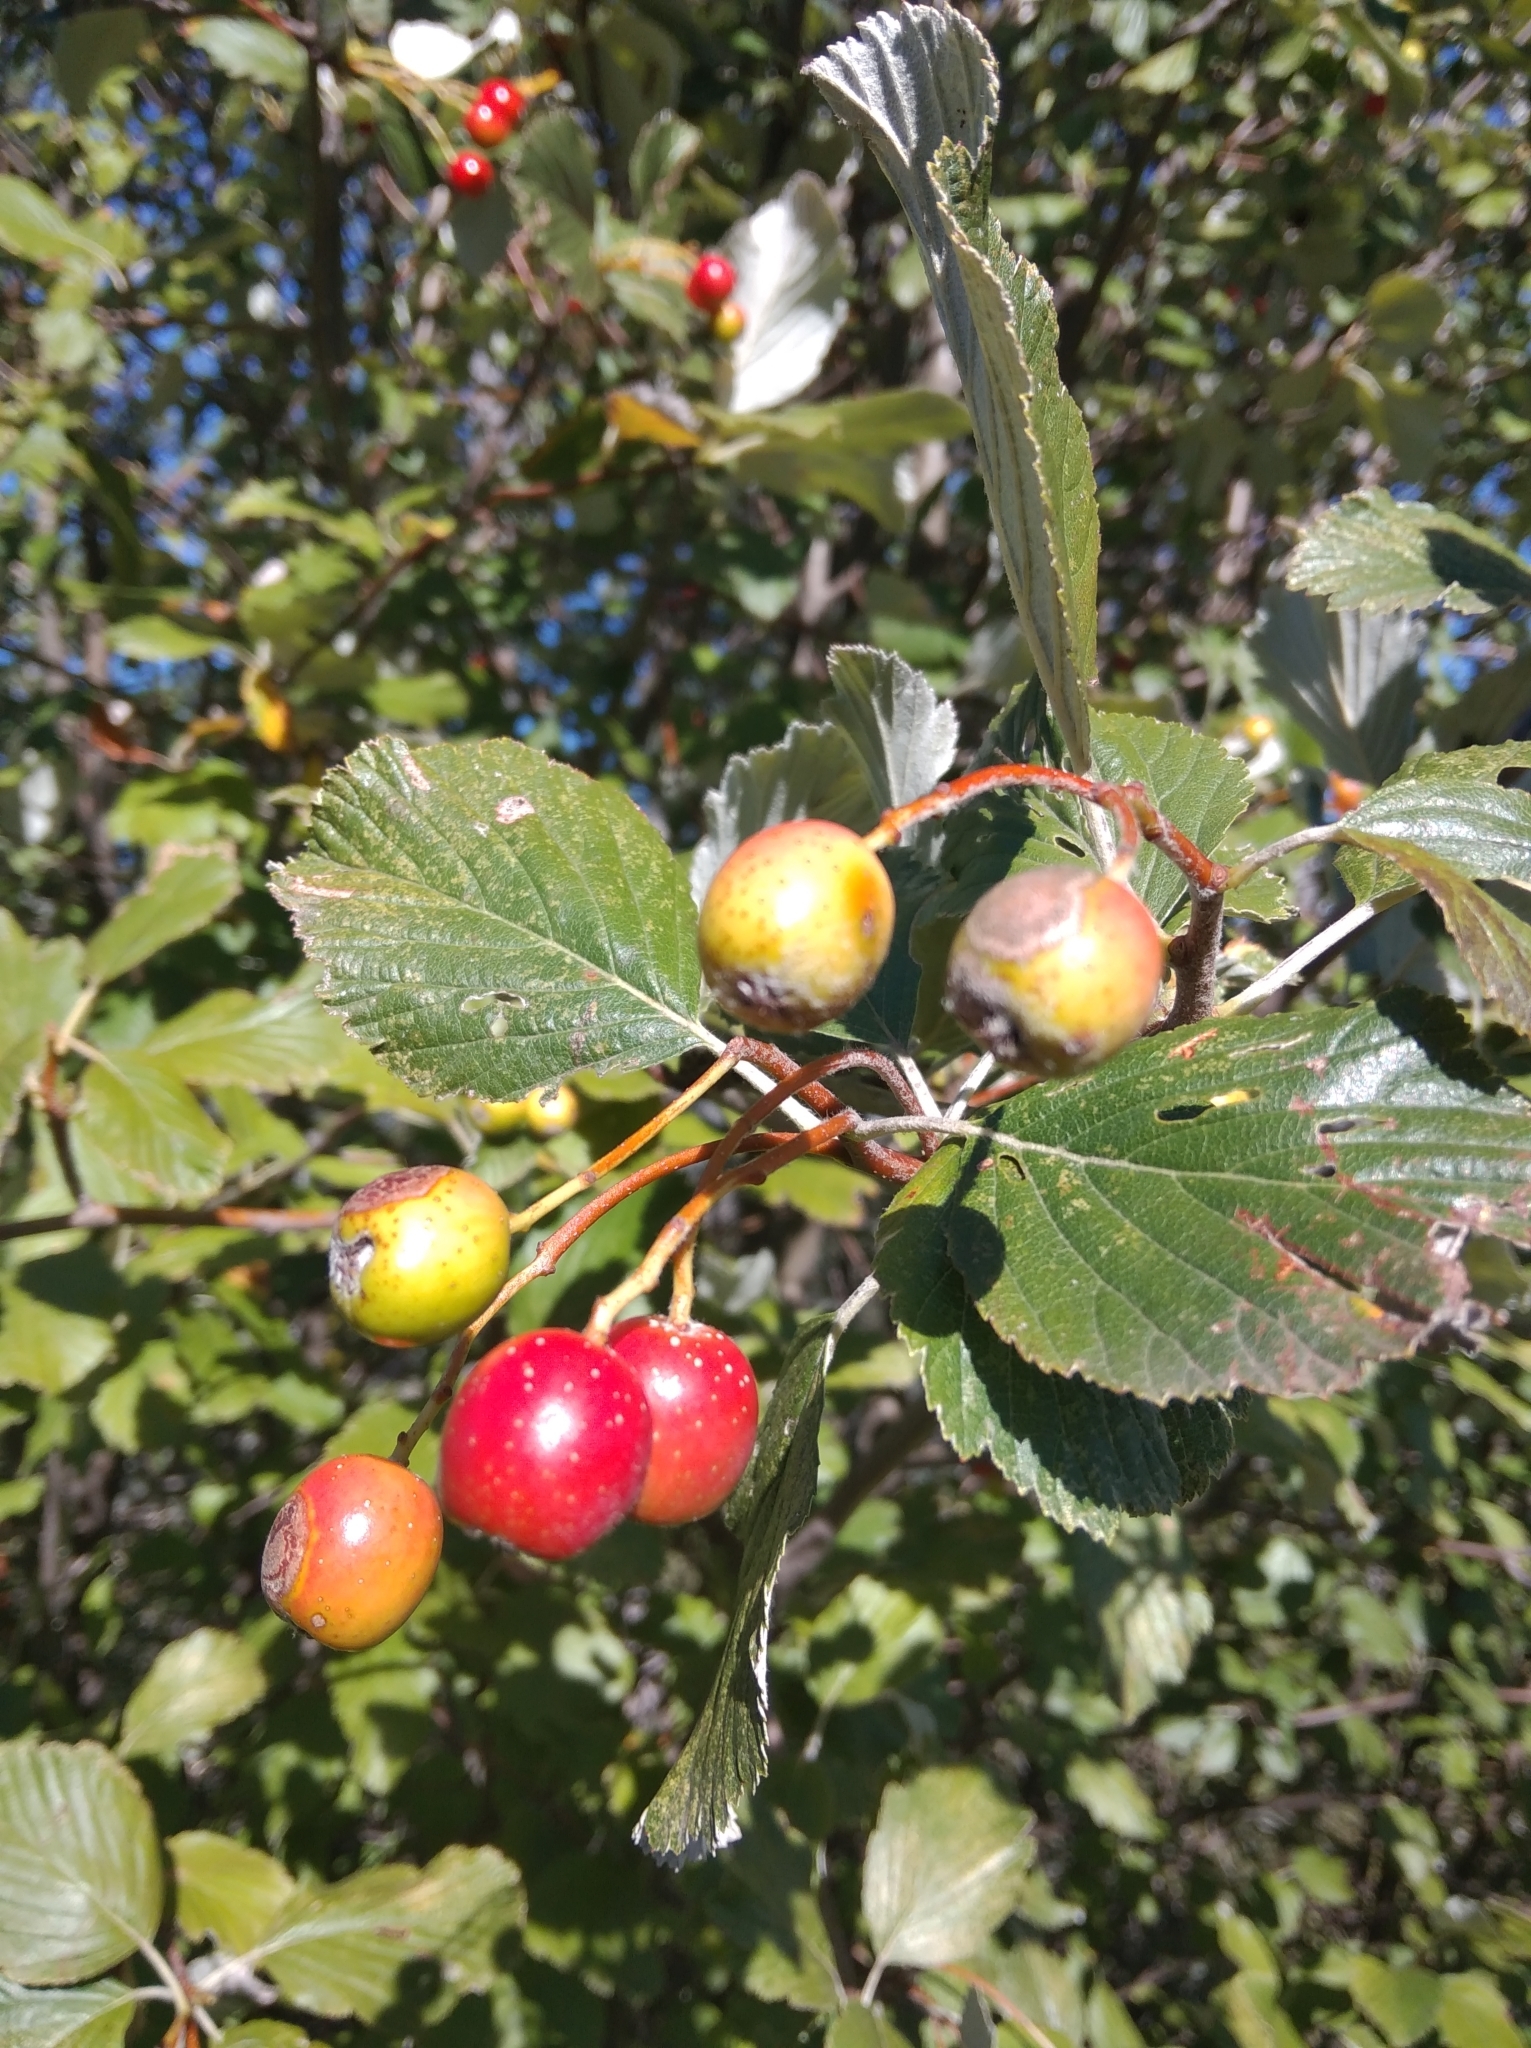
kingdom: Plantae
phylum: Tracheophyta
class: Magnoliopsida
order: Rosales
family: Rosaceae
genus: Aria
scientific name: Aria edulis
